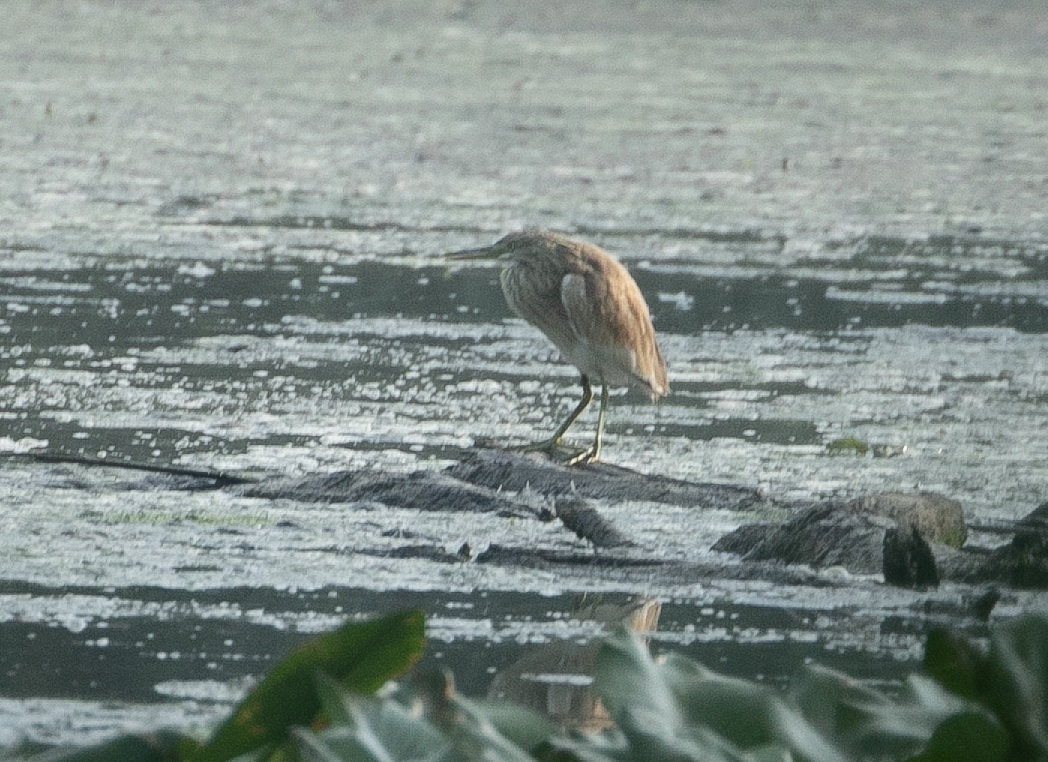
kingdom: Animalia
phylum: Chordata
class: Aves
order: Pelecaniformes
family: Ardeidae
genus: Ardeola
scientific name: Ardeola ralloides
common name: Squacco heron
